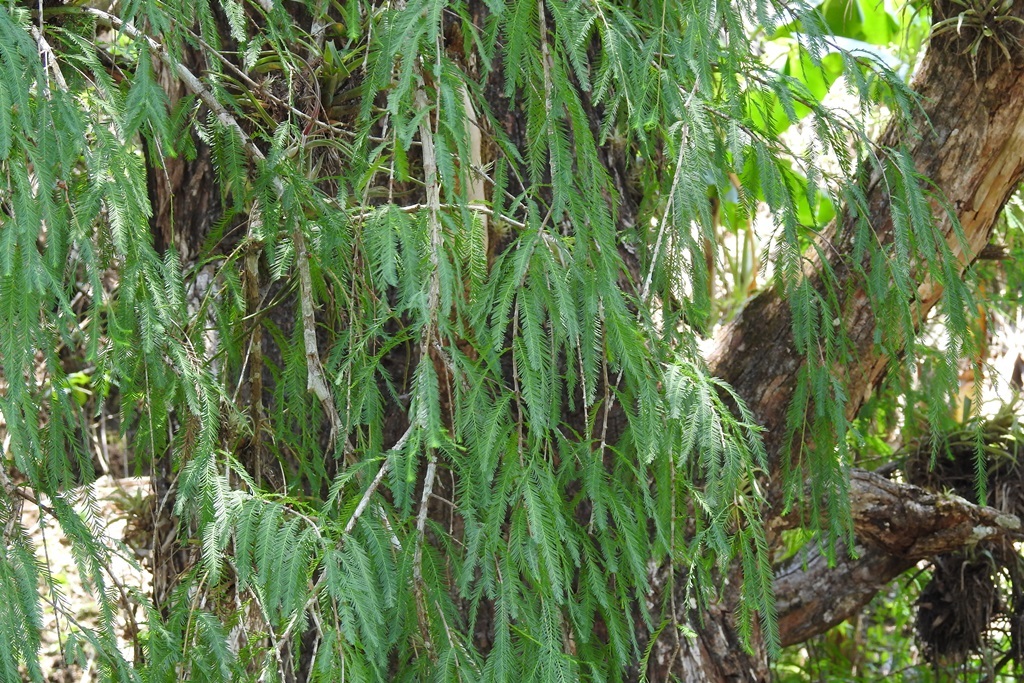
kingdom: Plantae
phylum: Tracheophyta
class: Pinopsida
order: Pinales
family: Cupressaceae
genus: Taxodium
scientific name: Taxodium mucronatum
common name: Montezume bald cypress
